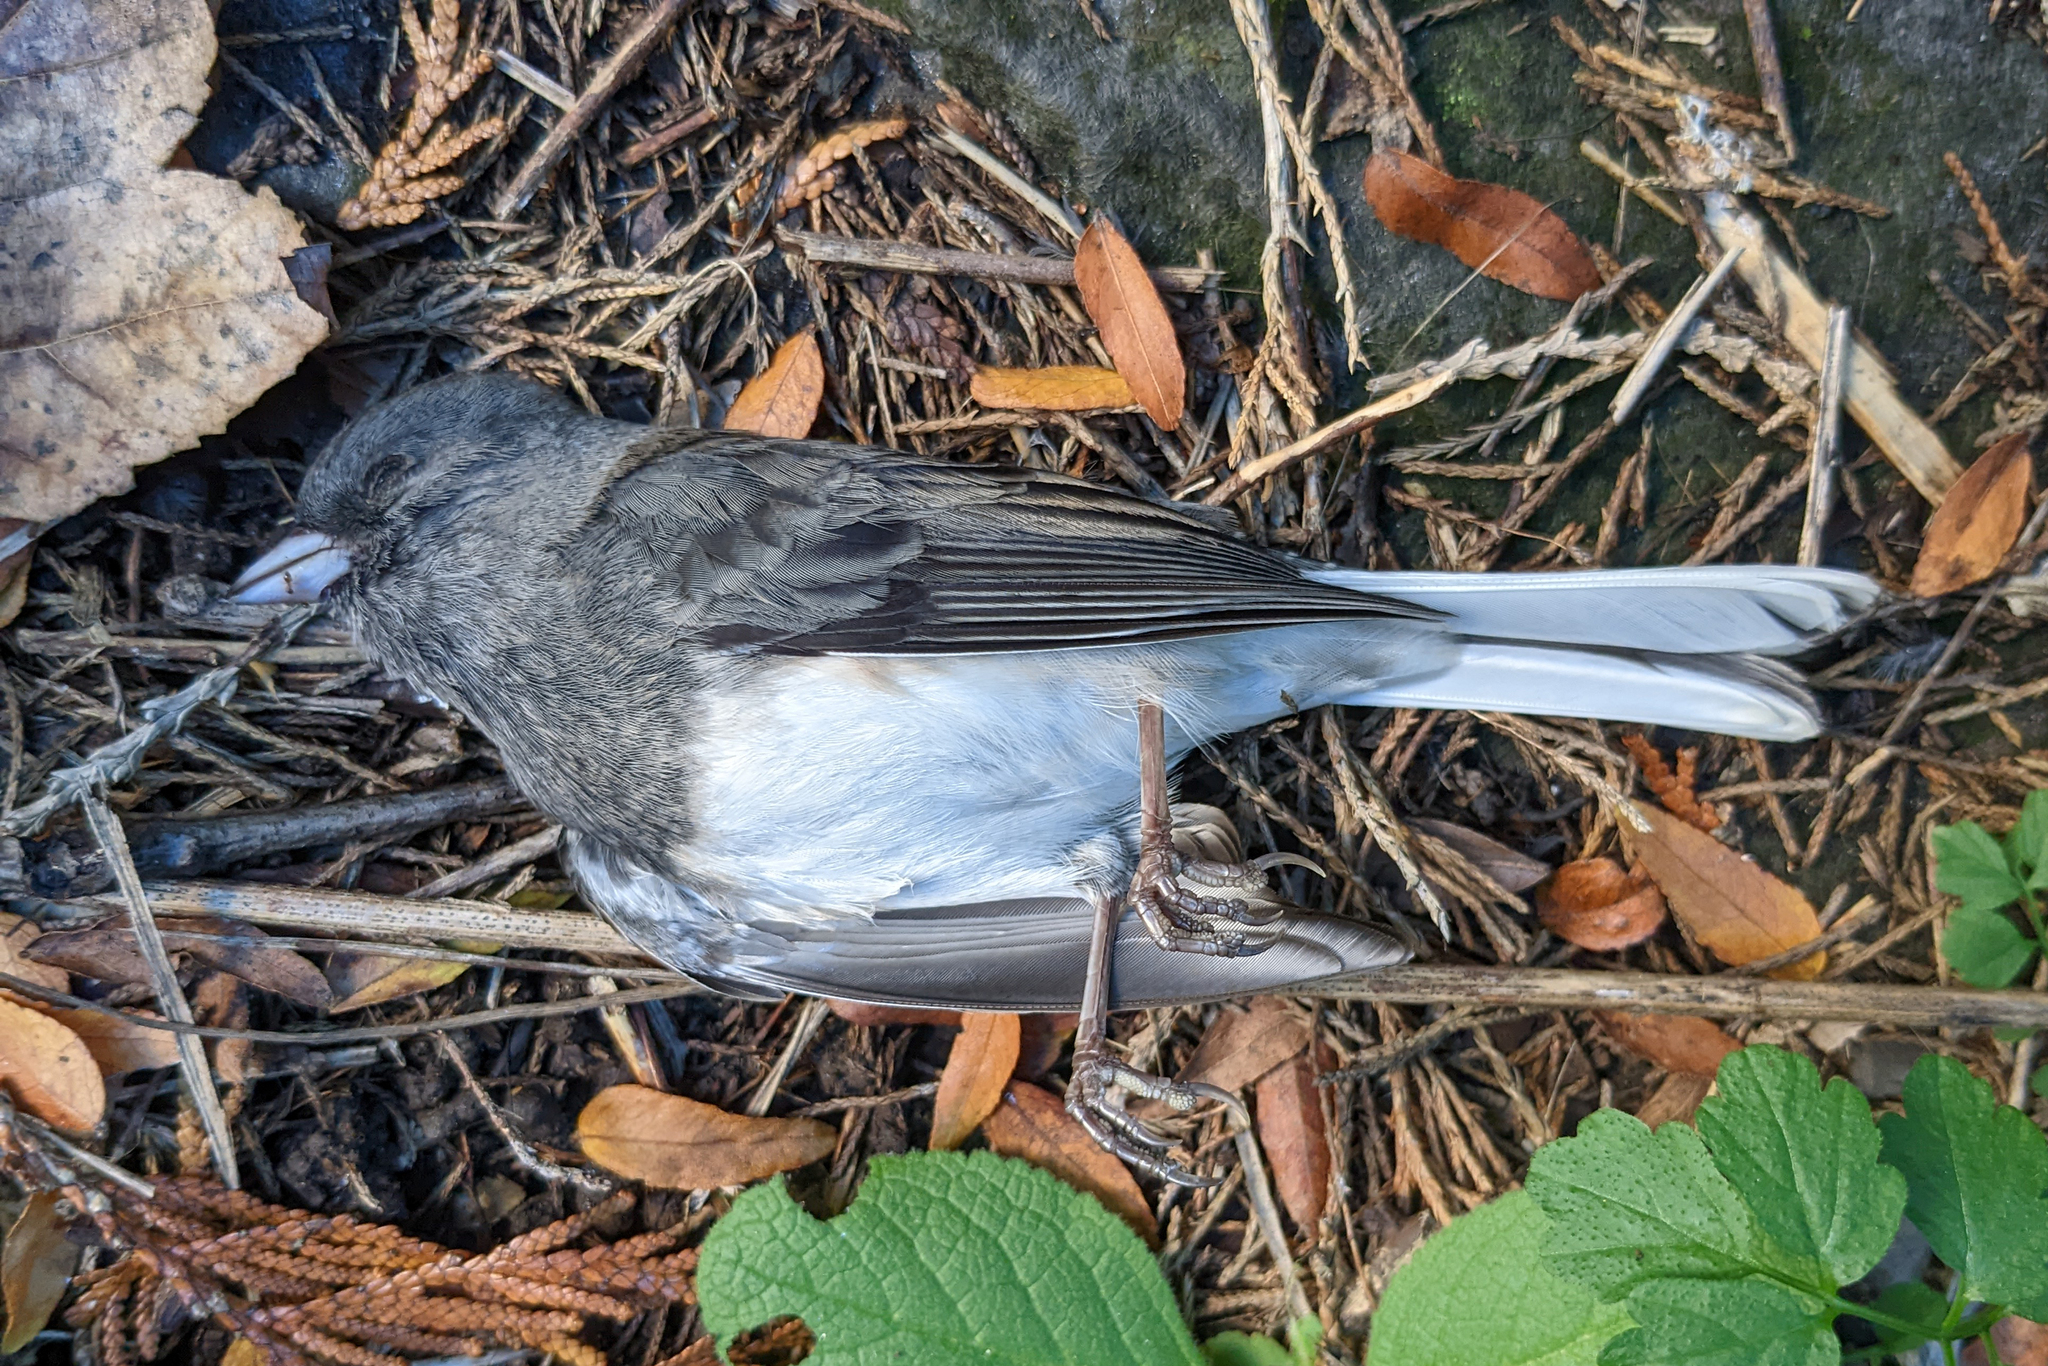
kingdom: Animalia
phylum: Chordata
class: Aves
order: Passeriformes
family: Passerellidae
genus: Junco
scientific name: Junco hyemalis
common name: Dark-eyed junco
